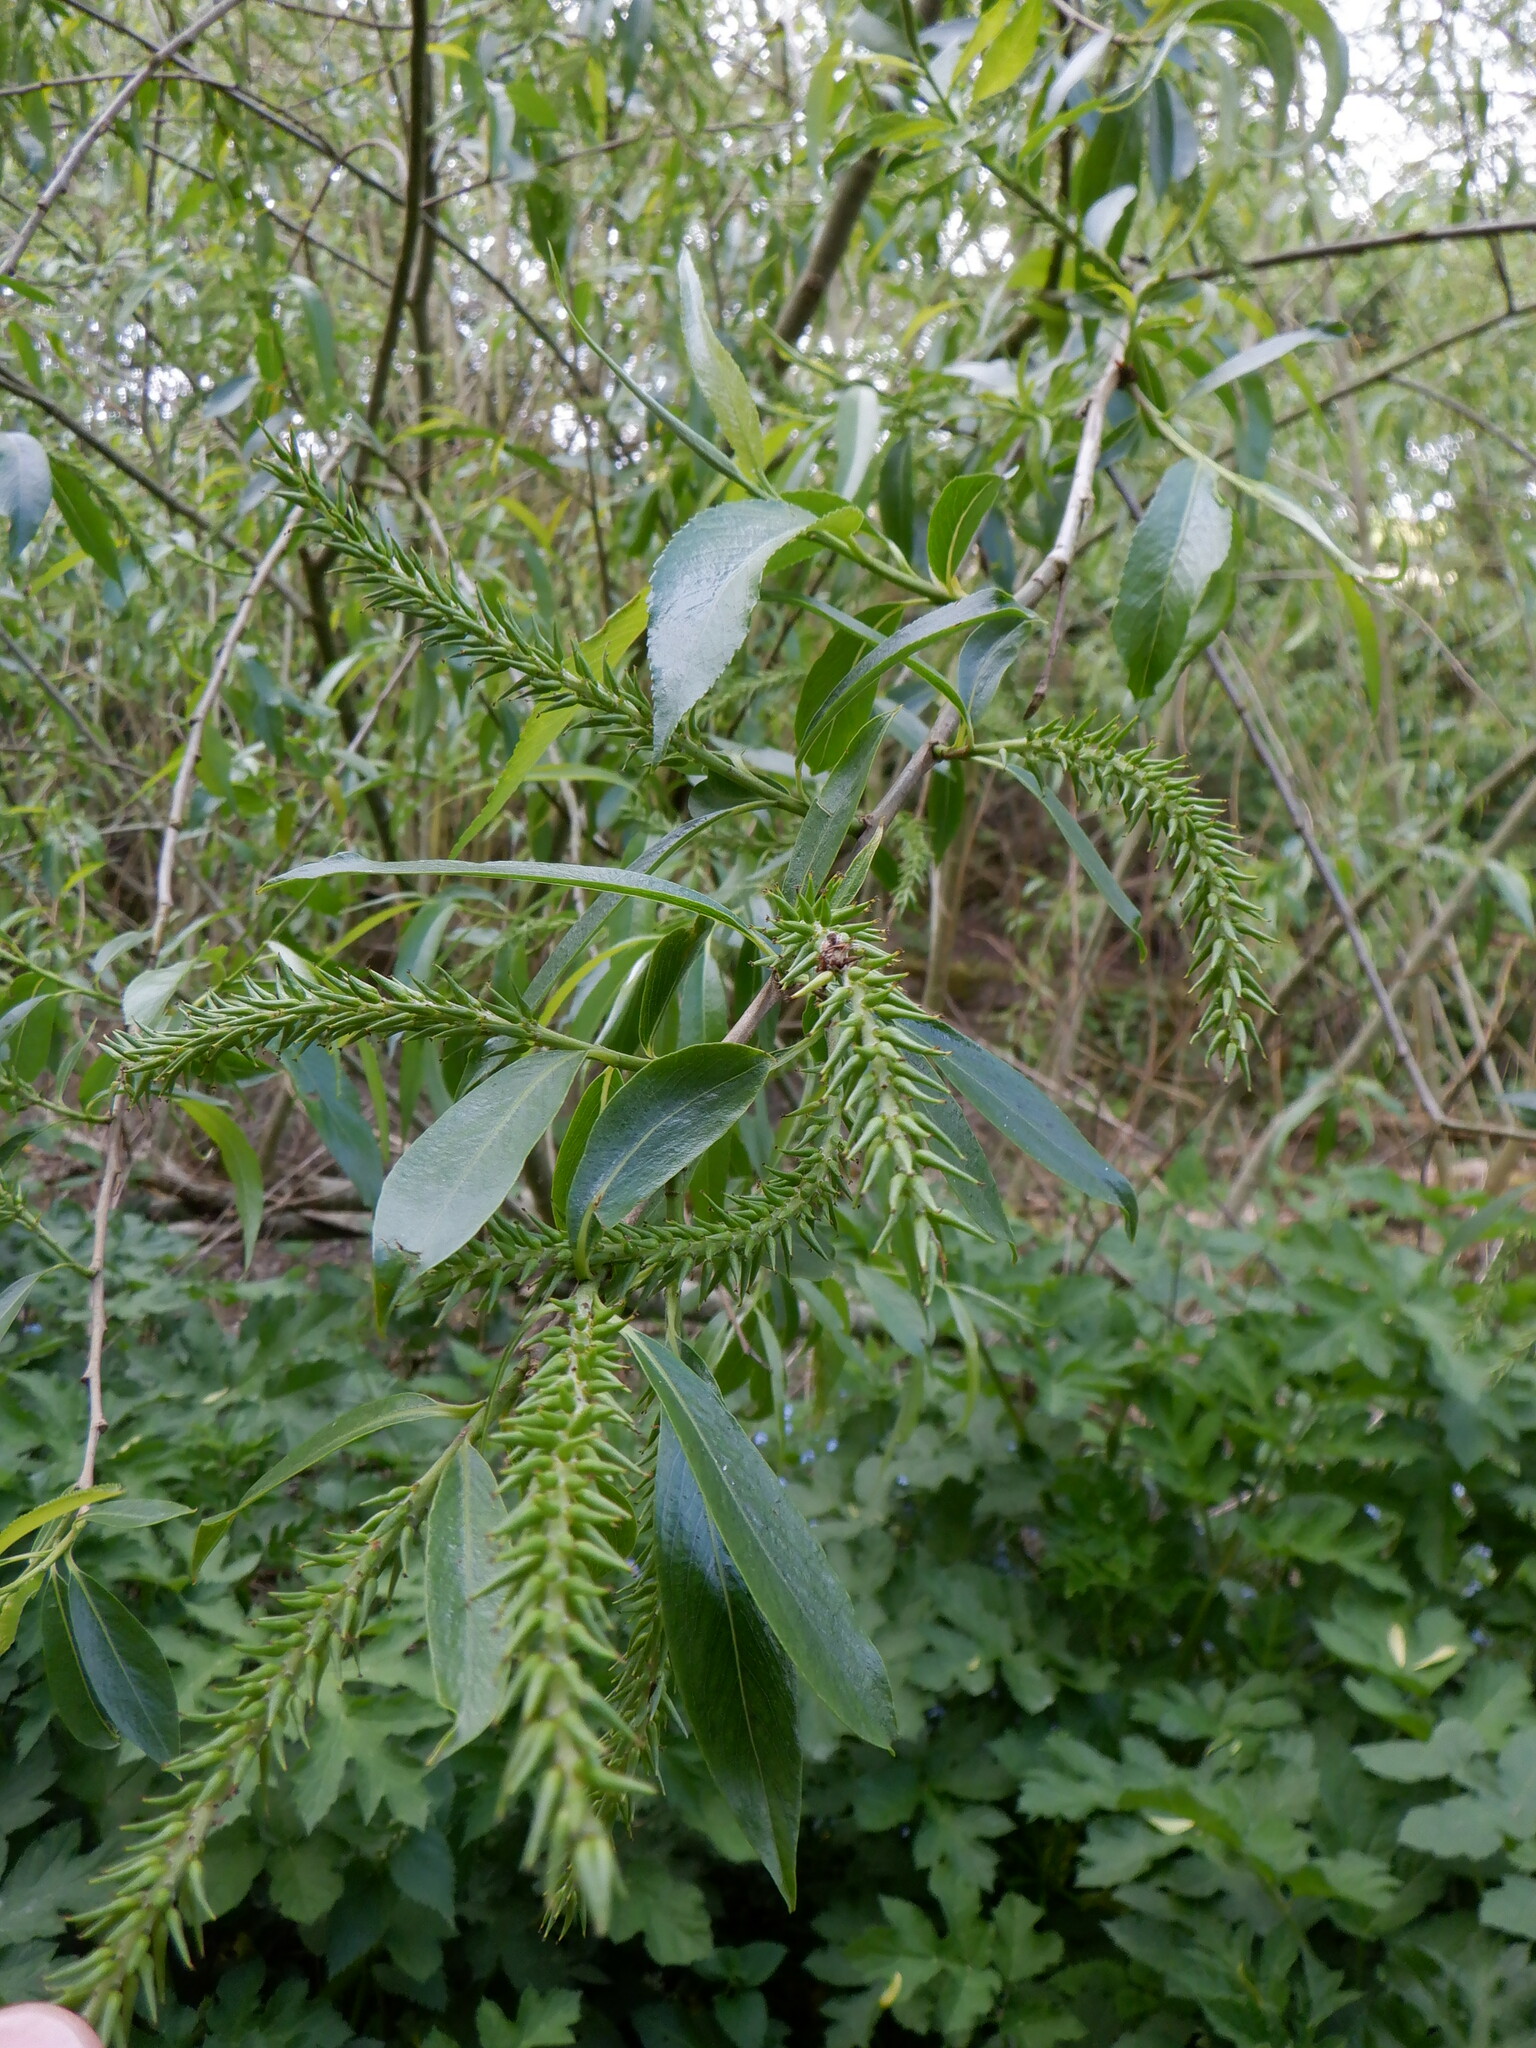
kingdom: Plantae
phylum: Tracheophyta
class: Magnoliopsida
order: Malpighiales
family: Salicaceae
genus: Salix
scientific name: Salix fragilis
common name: Crack willow
